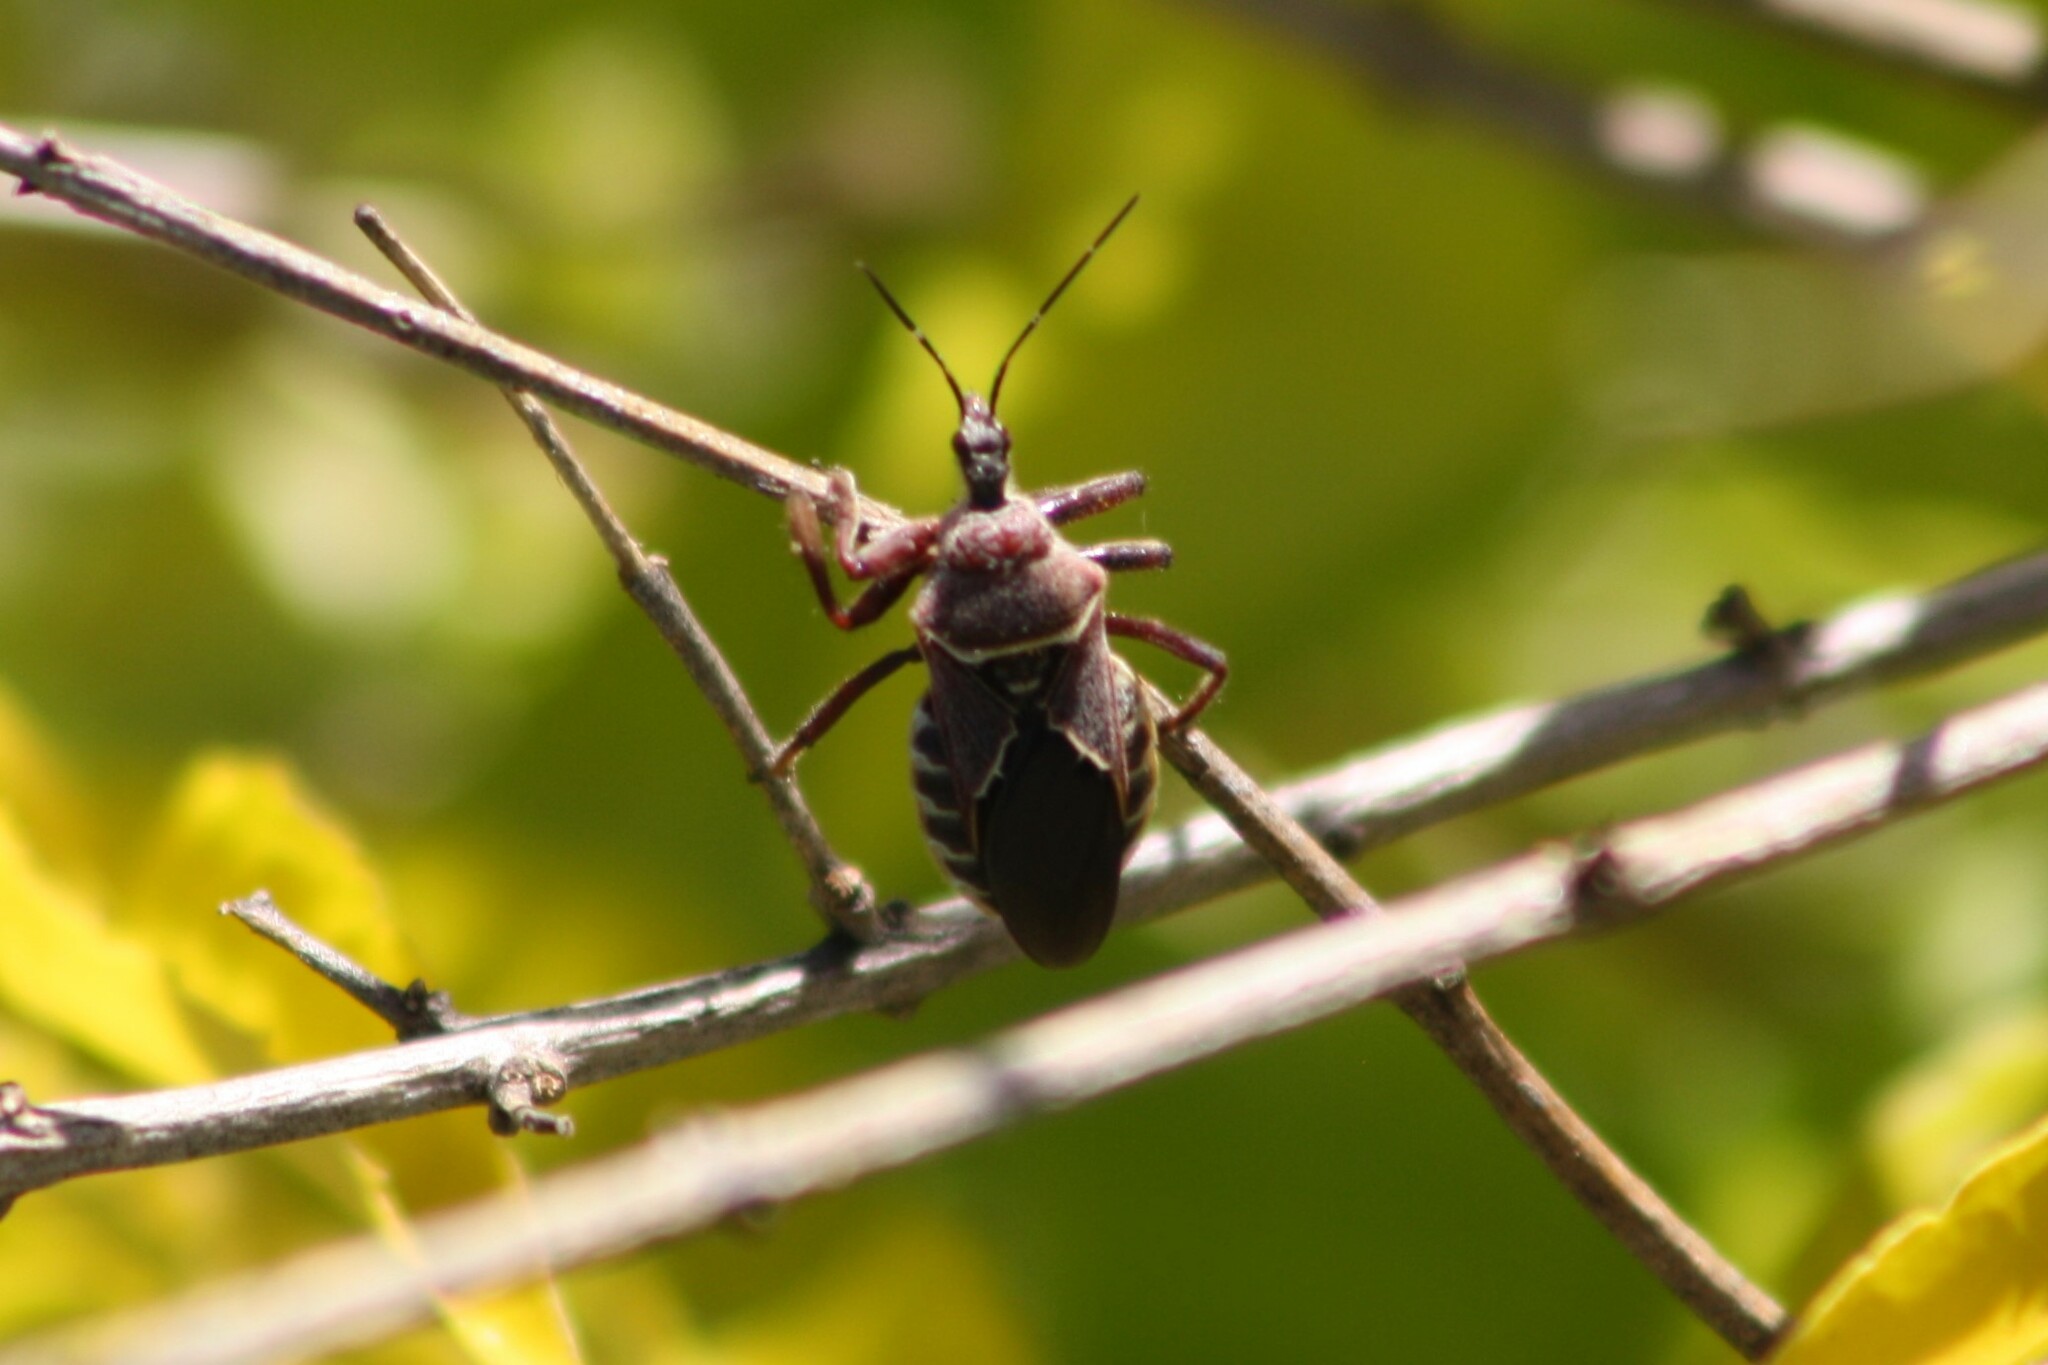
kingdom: Animalia
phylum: Arthropoda
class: Insecta
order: Hemiptera
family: Reduviidae
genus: Apiomerus
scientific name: Apiomerus spissipes
